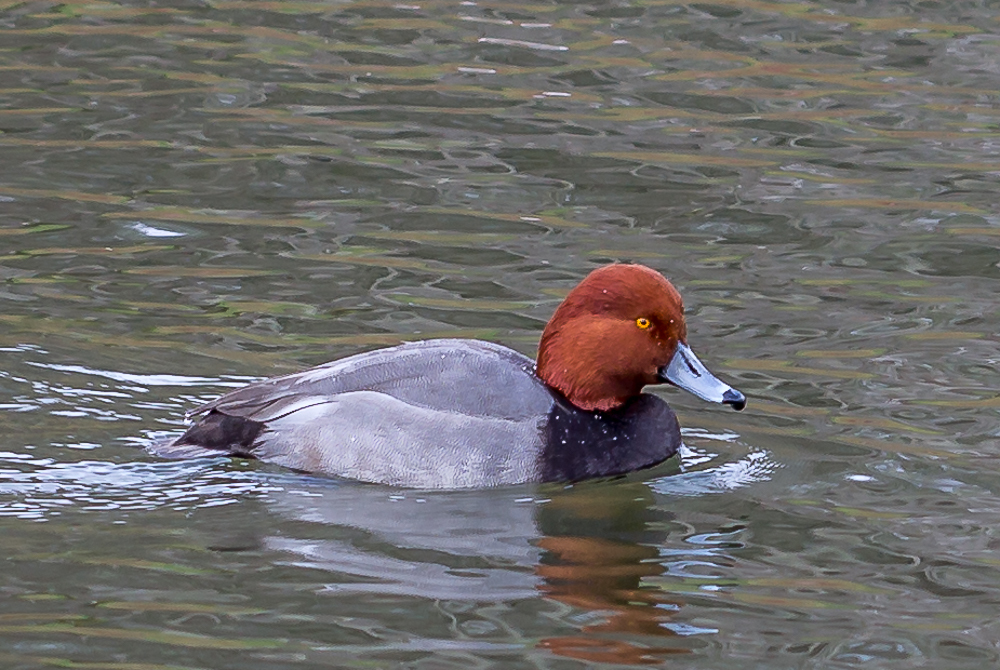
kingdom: Animalia
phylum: Chordata
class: Aves
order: Anseriformes
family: Anatidae
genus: Aythya
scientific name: Aythya americana
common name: Redhead
